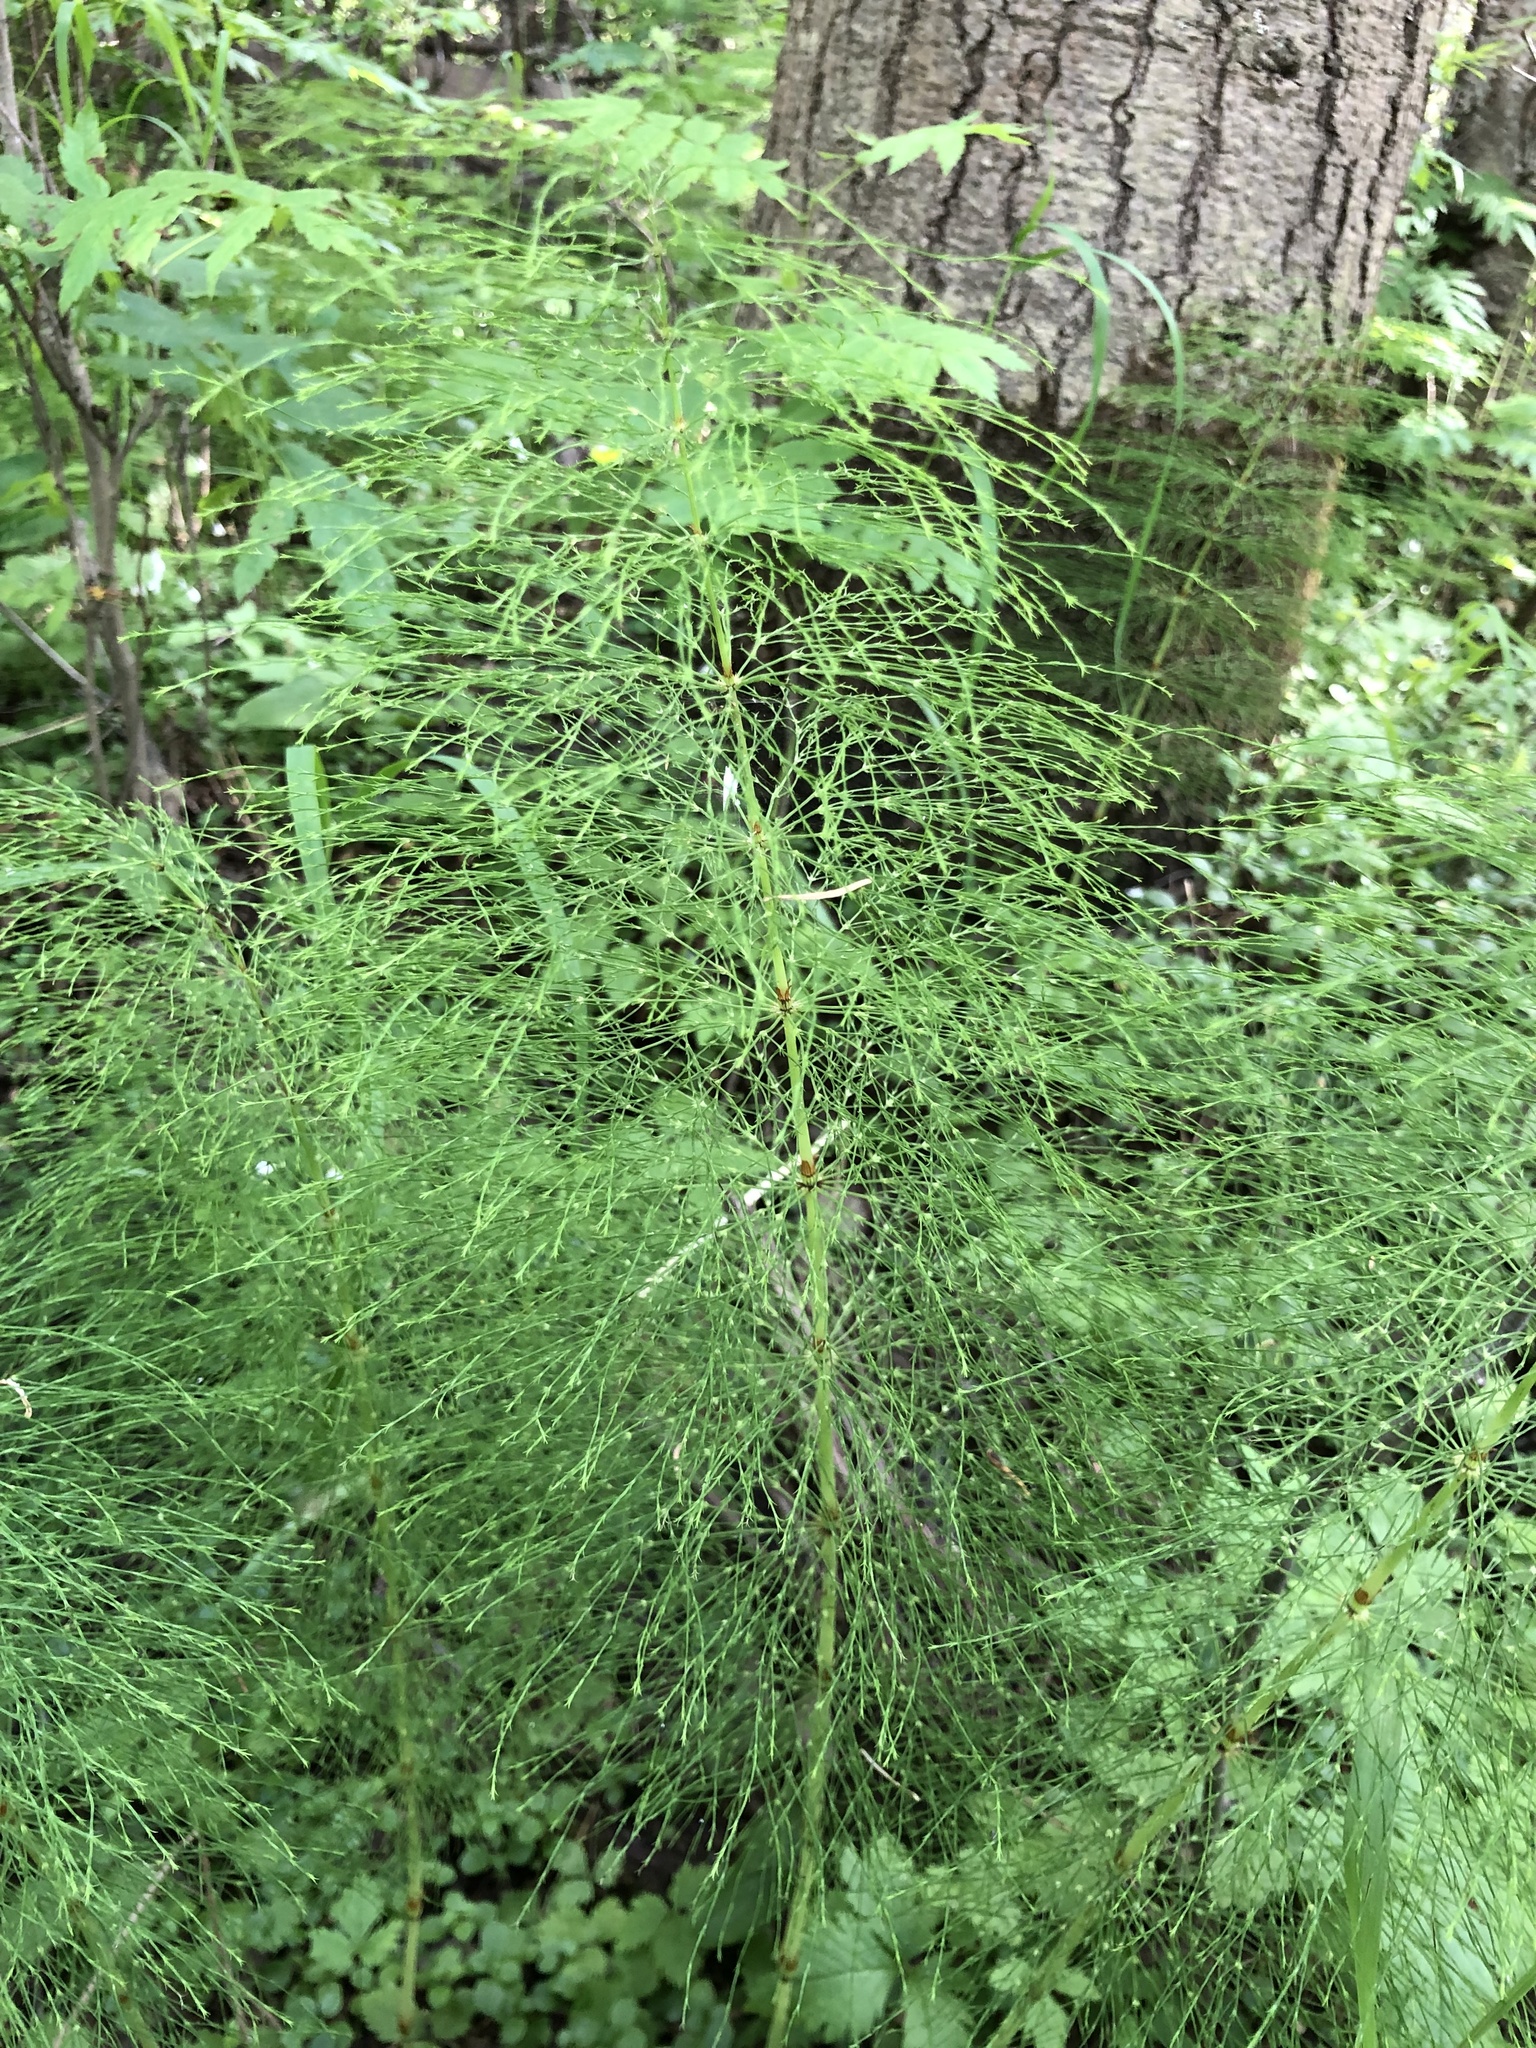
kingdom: Plantae
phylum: Tracheophyta
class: Polypodiopsida
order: Equisetales
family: Equisetaceae
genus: Equisetum
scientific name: Equisetum sylvaticum
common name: Wood horsetail
